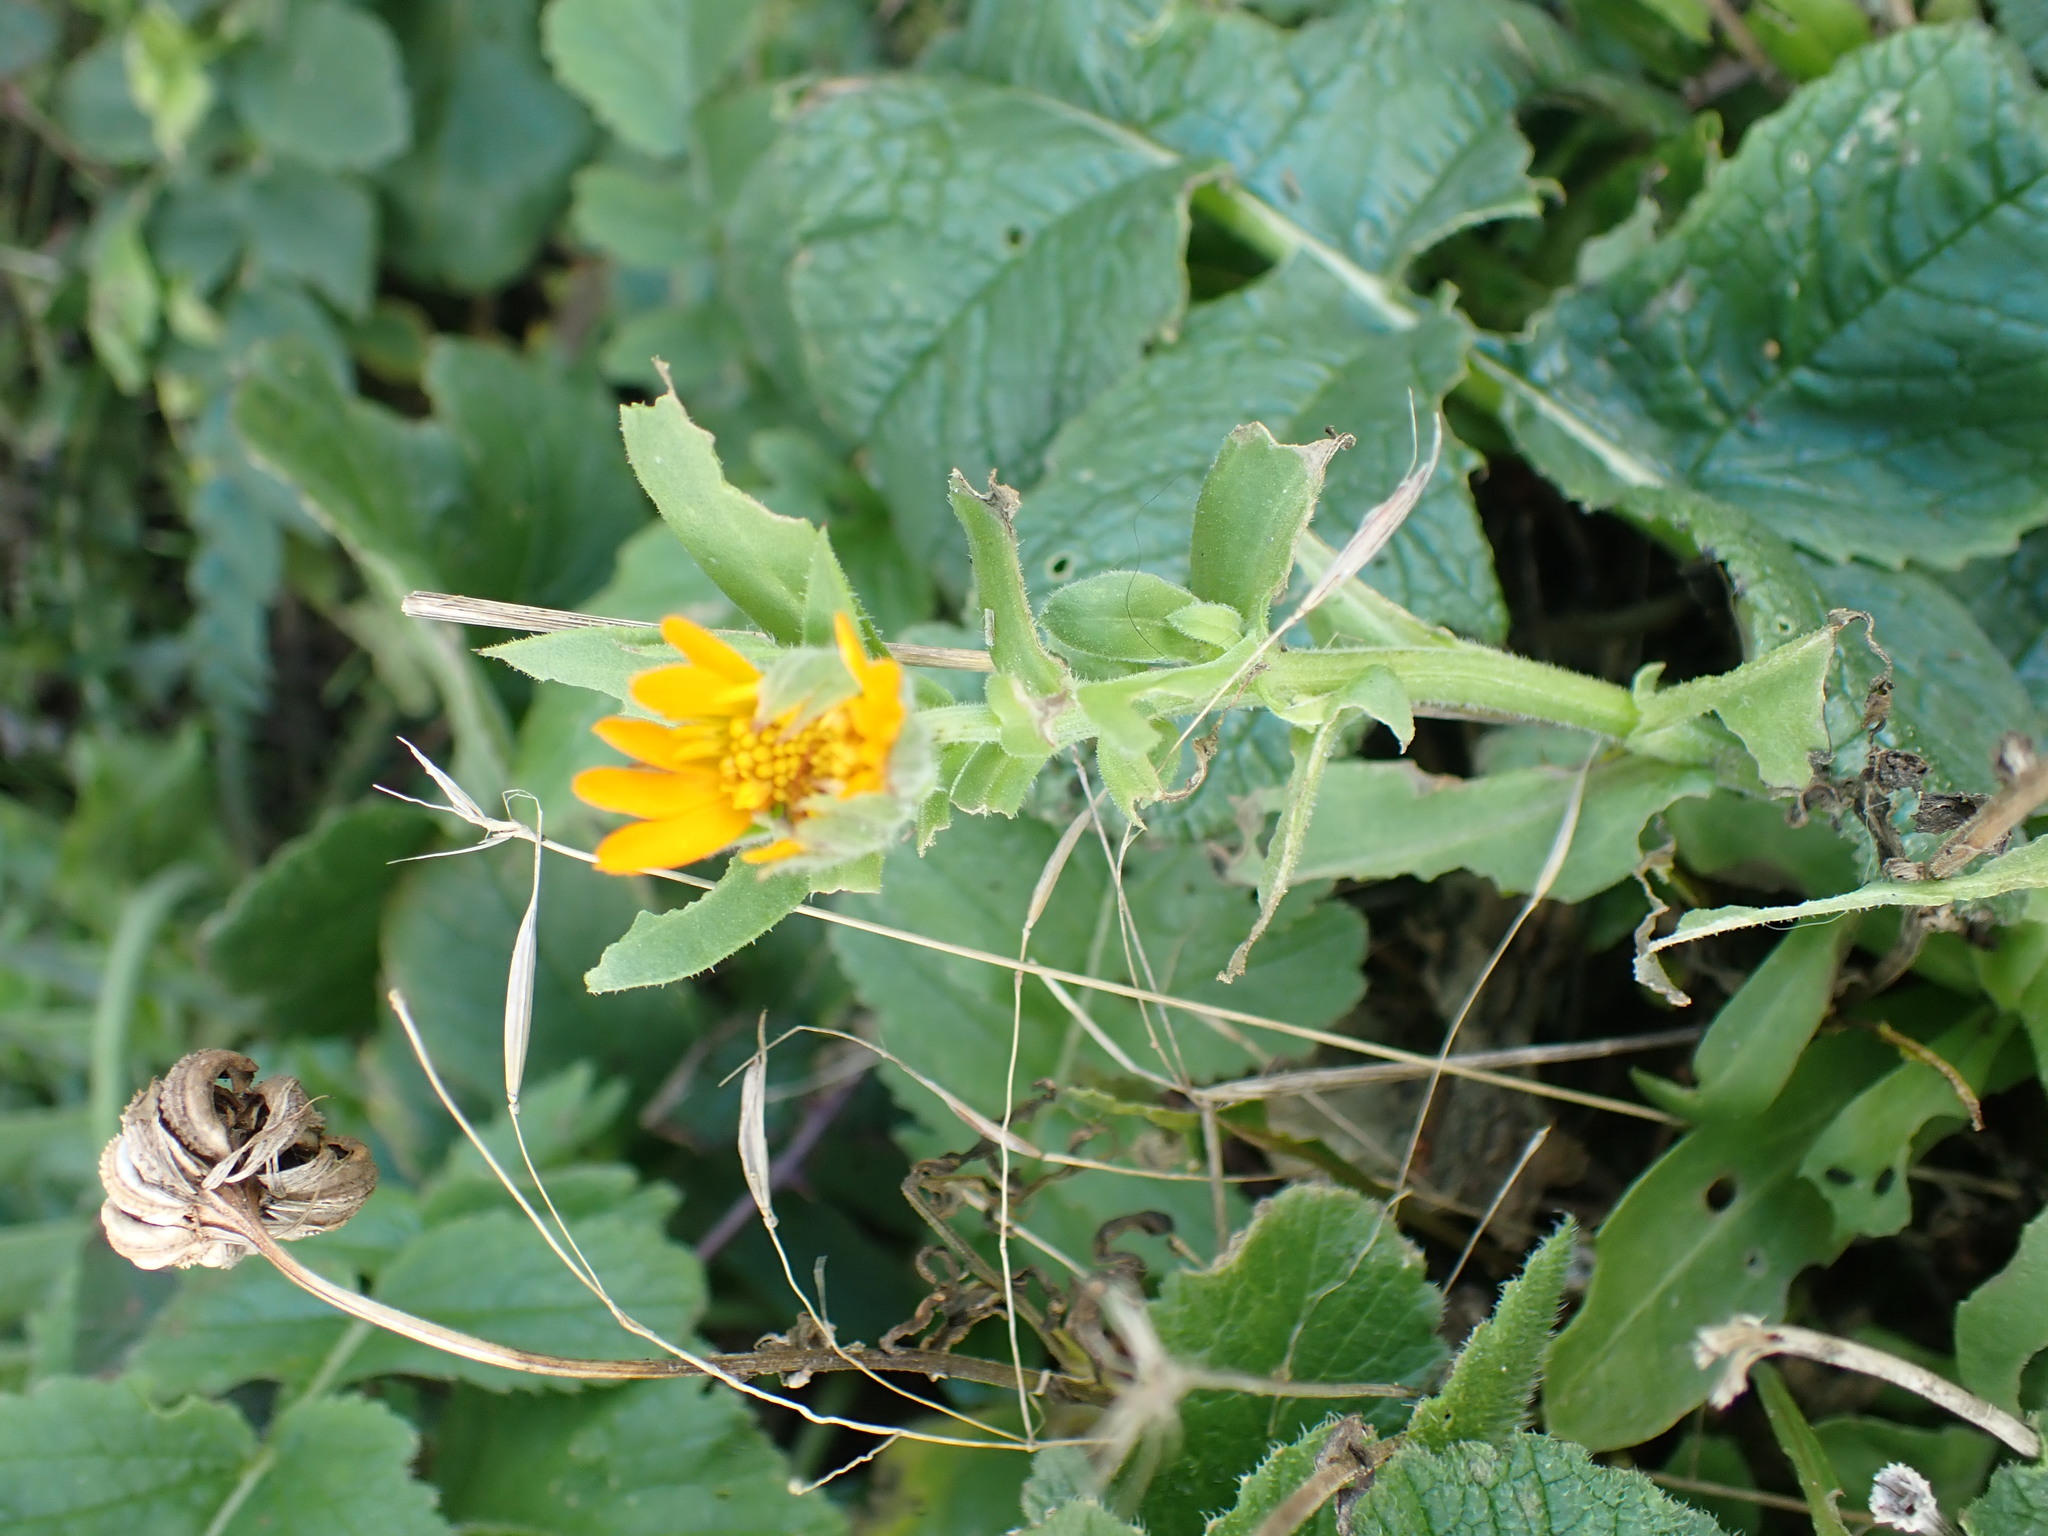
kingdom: Plantae
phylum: Tracheophyta
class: Magnoliopsida
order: Asterales
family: Asteraceae
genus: Calendula
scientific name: Calendula officinalis
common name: Pot marigold
